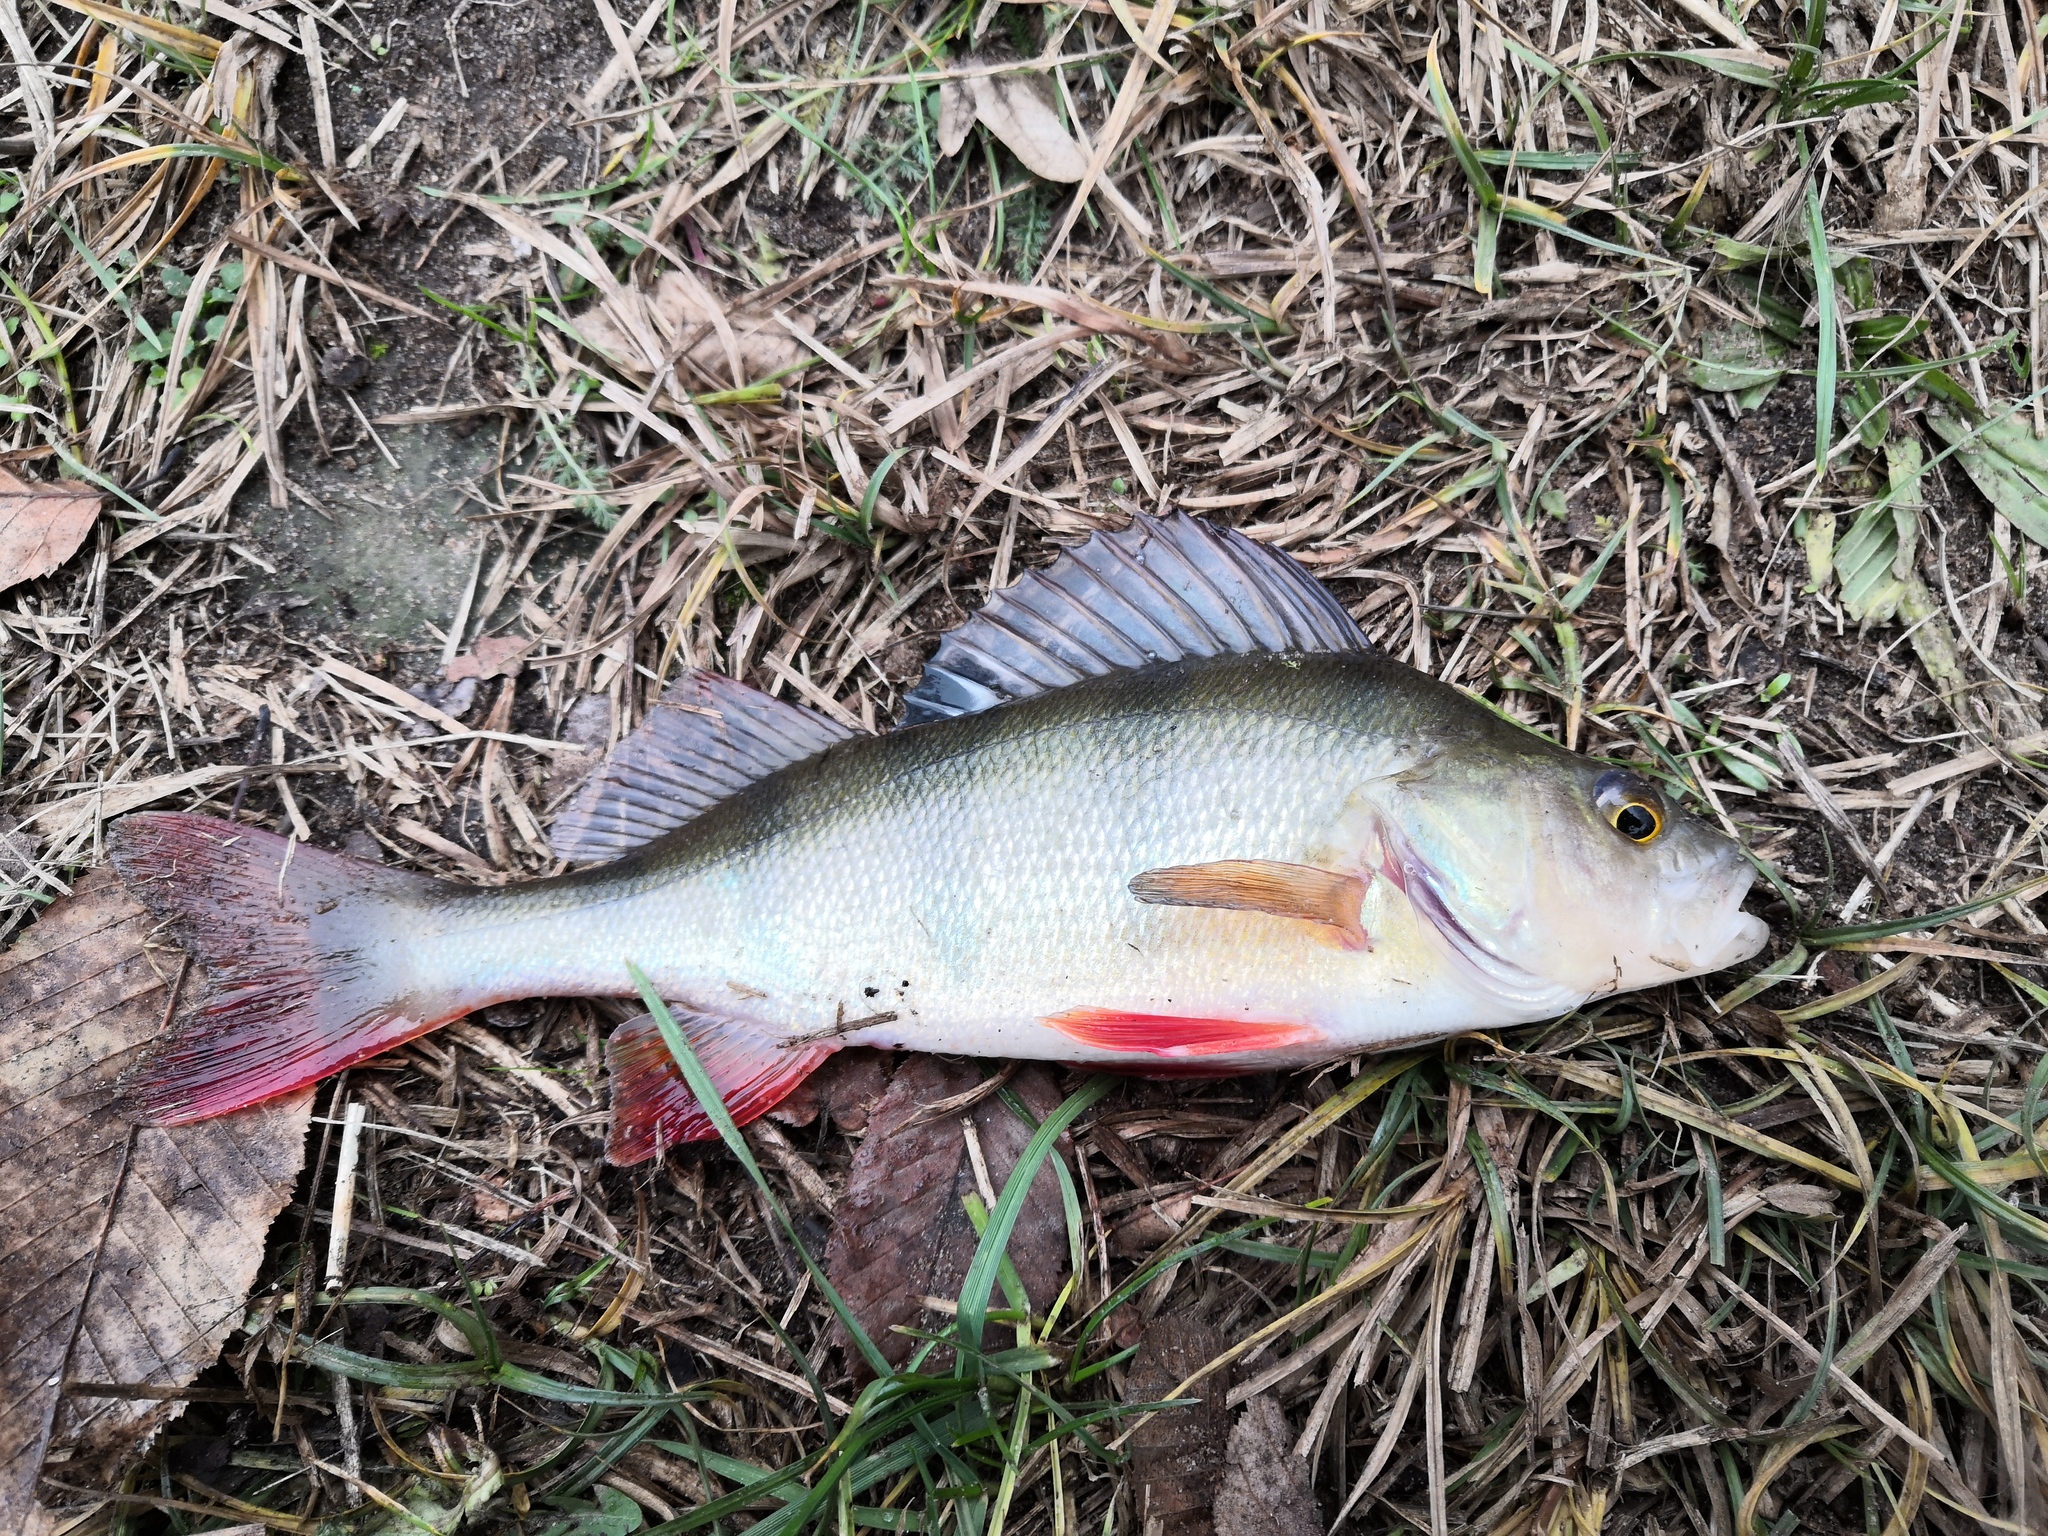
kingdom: Animalia
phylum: Chordata
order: Perciformes
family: Percidae
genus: Perca
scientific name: Perca fluviatilis
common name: Perch
